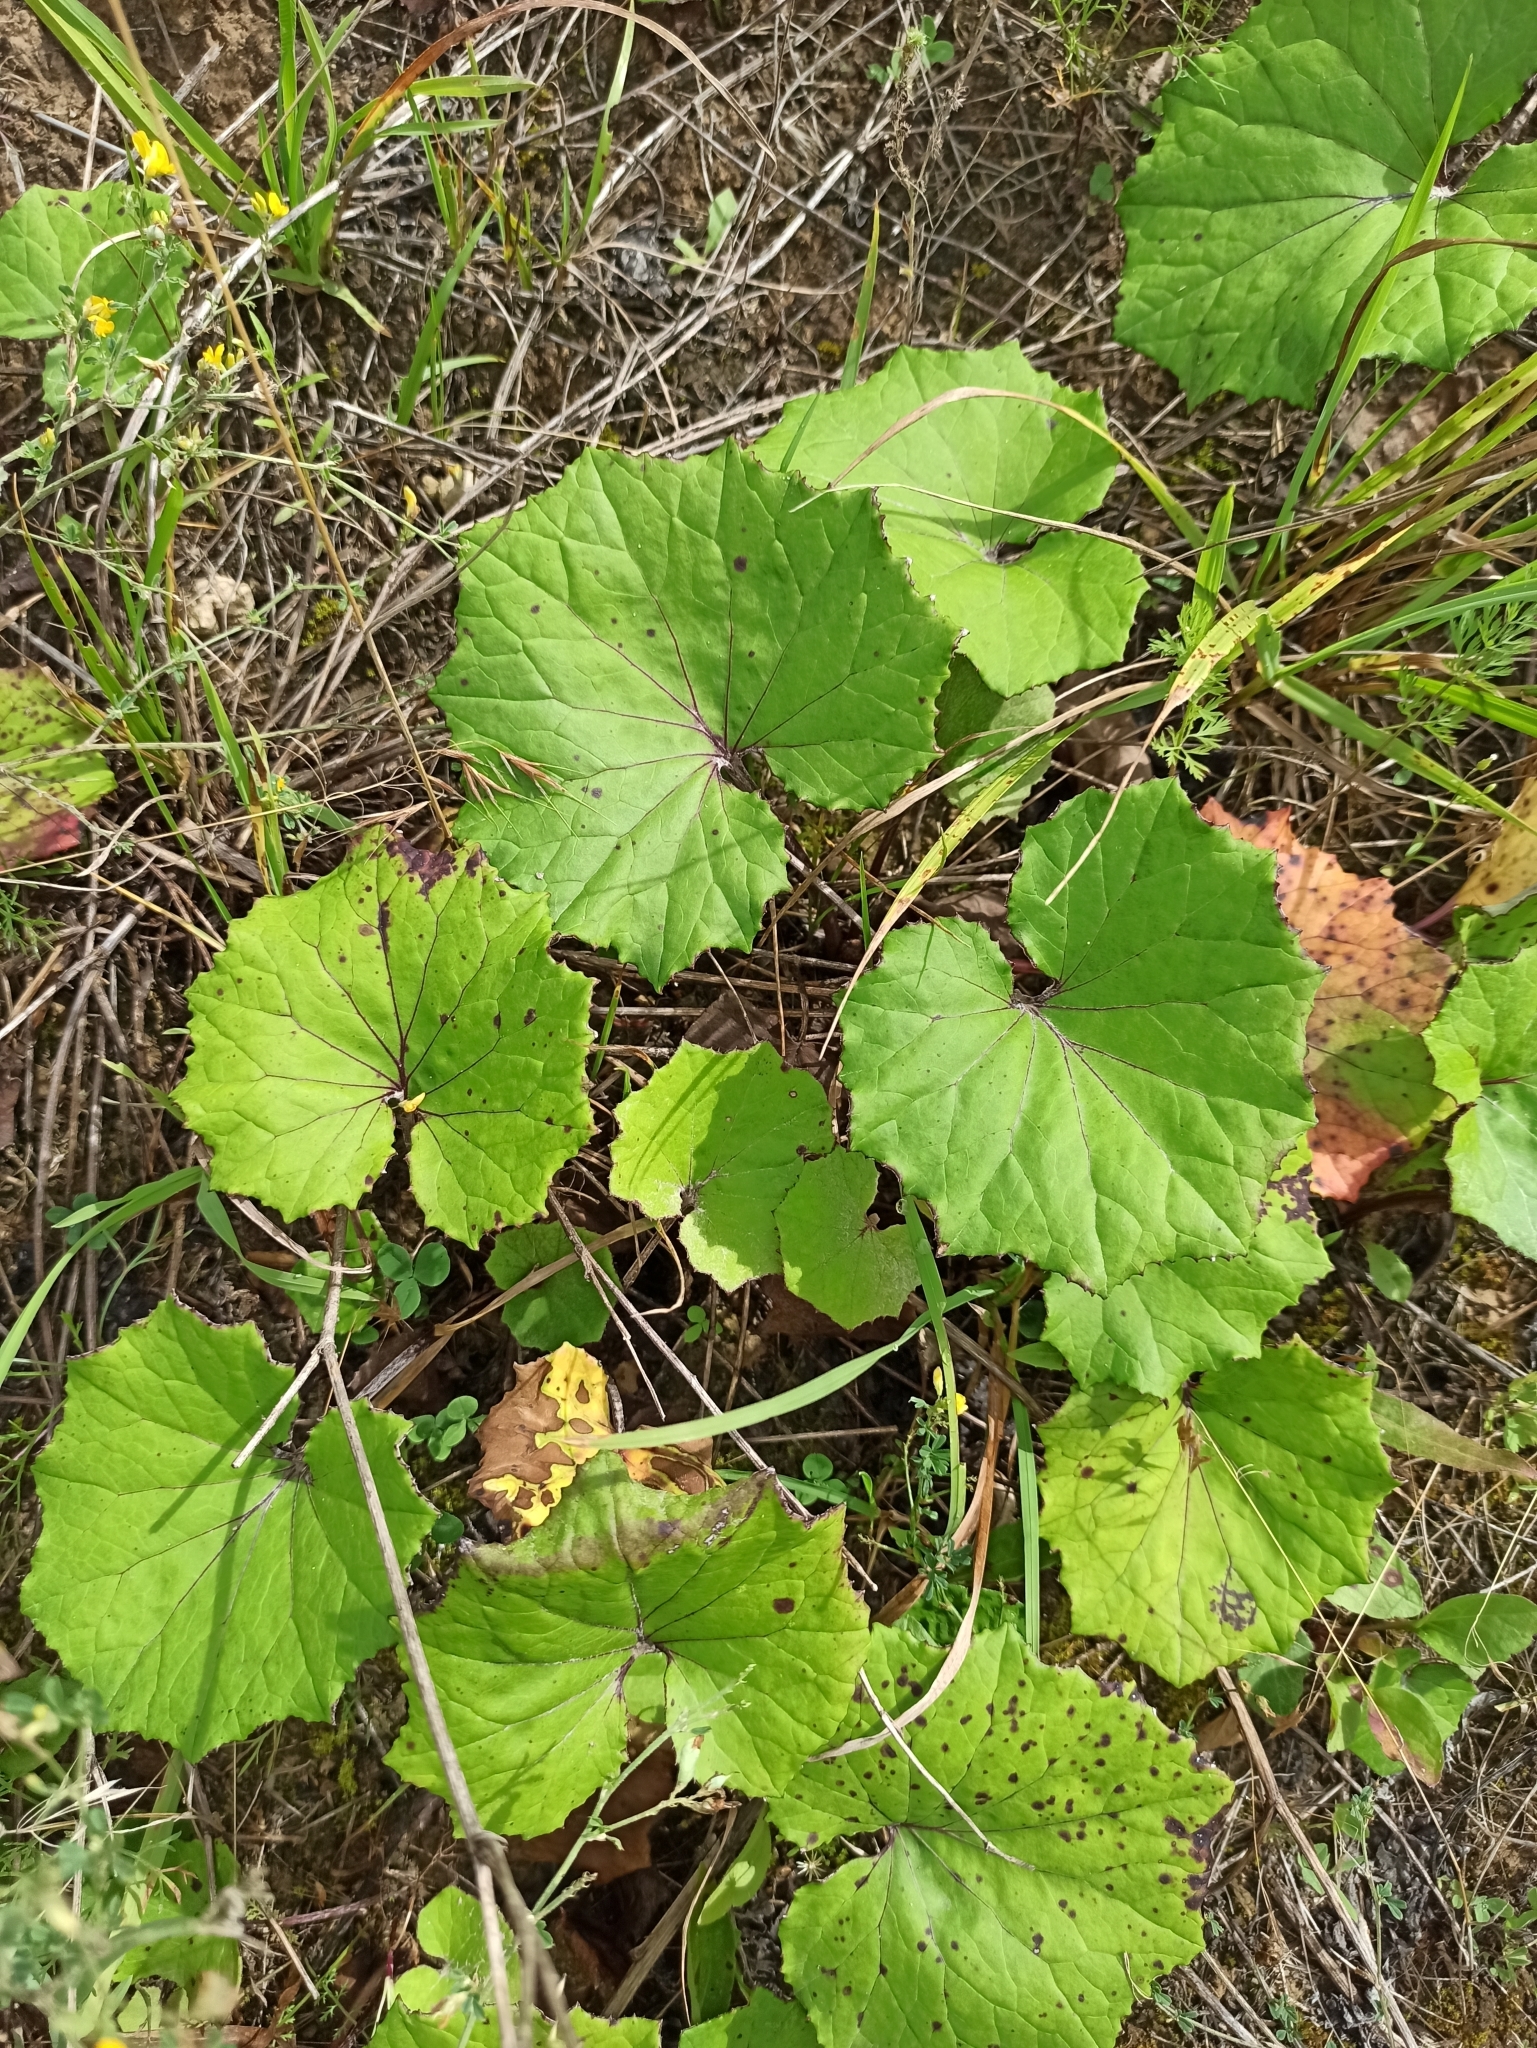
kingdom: Plantae
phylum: Tracheophyta
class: Magnoliopsida
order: Asterales
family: Asteraceae
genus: Tussilago
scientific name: Tussilago farfara
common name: Coltsfoot
